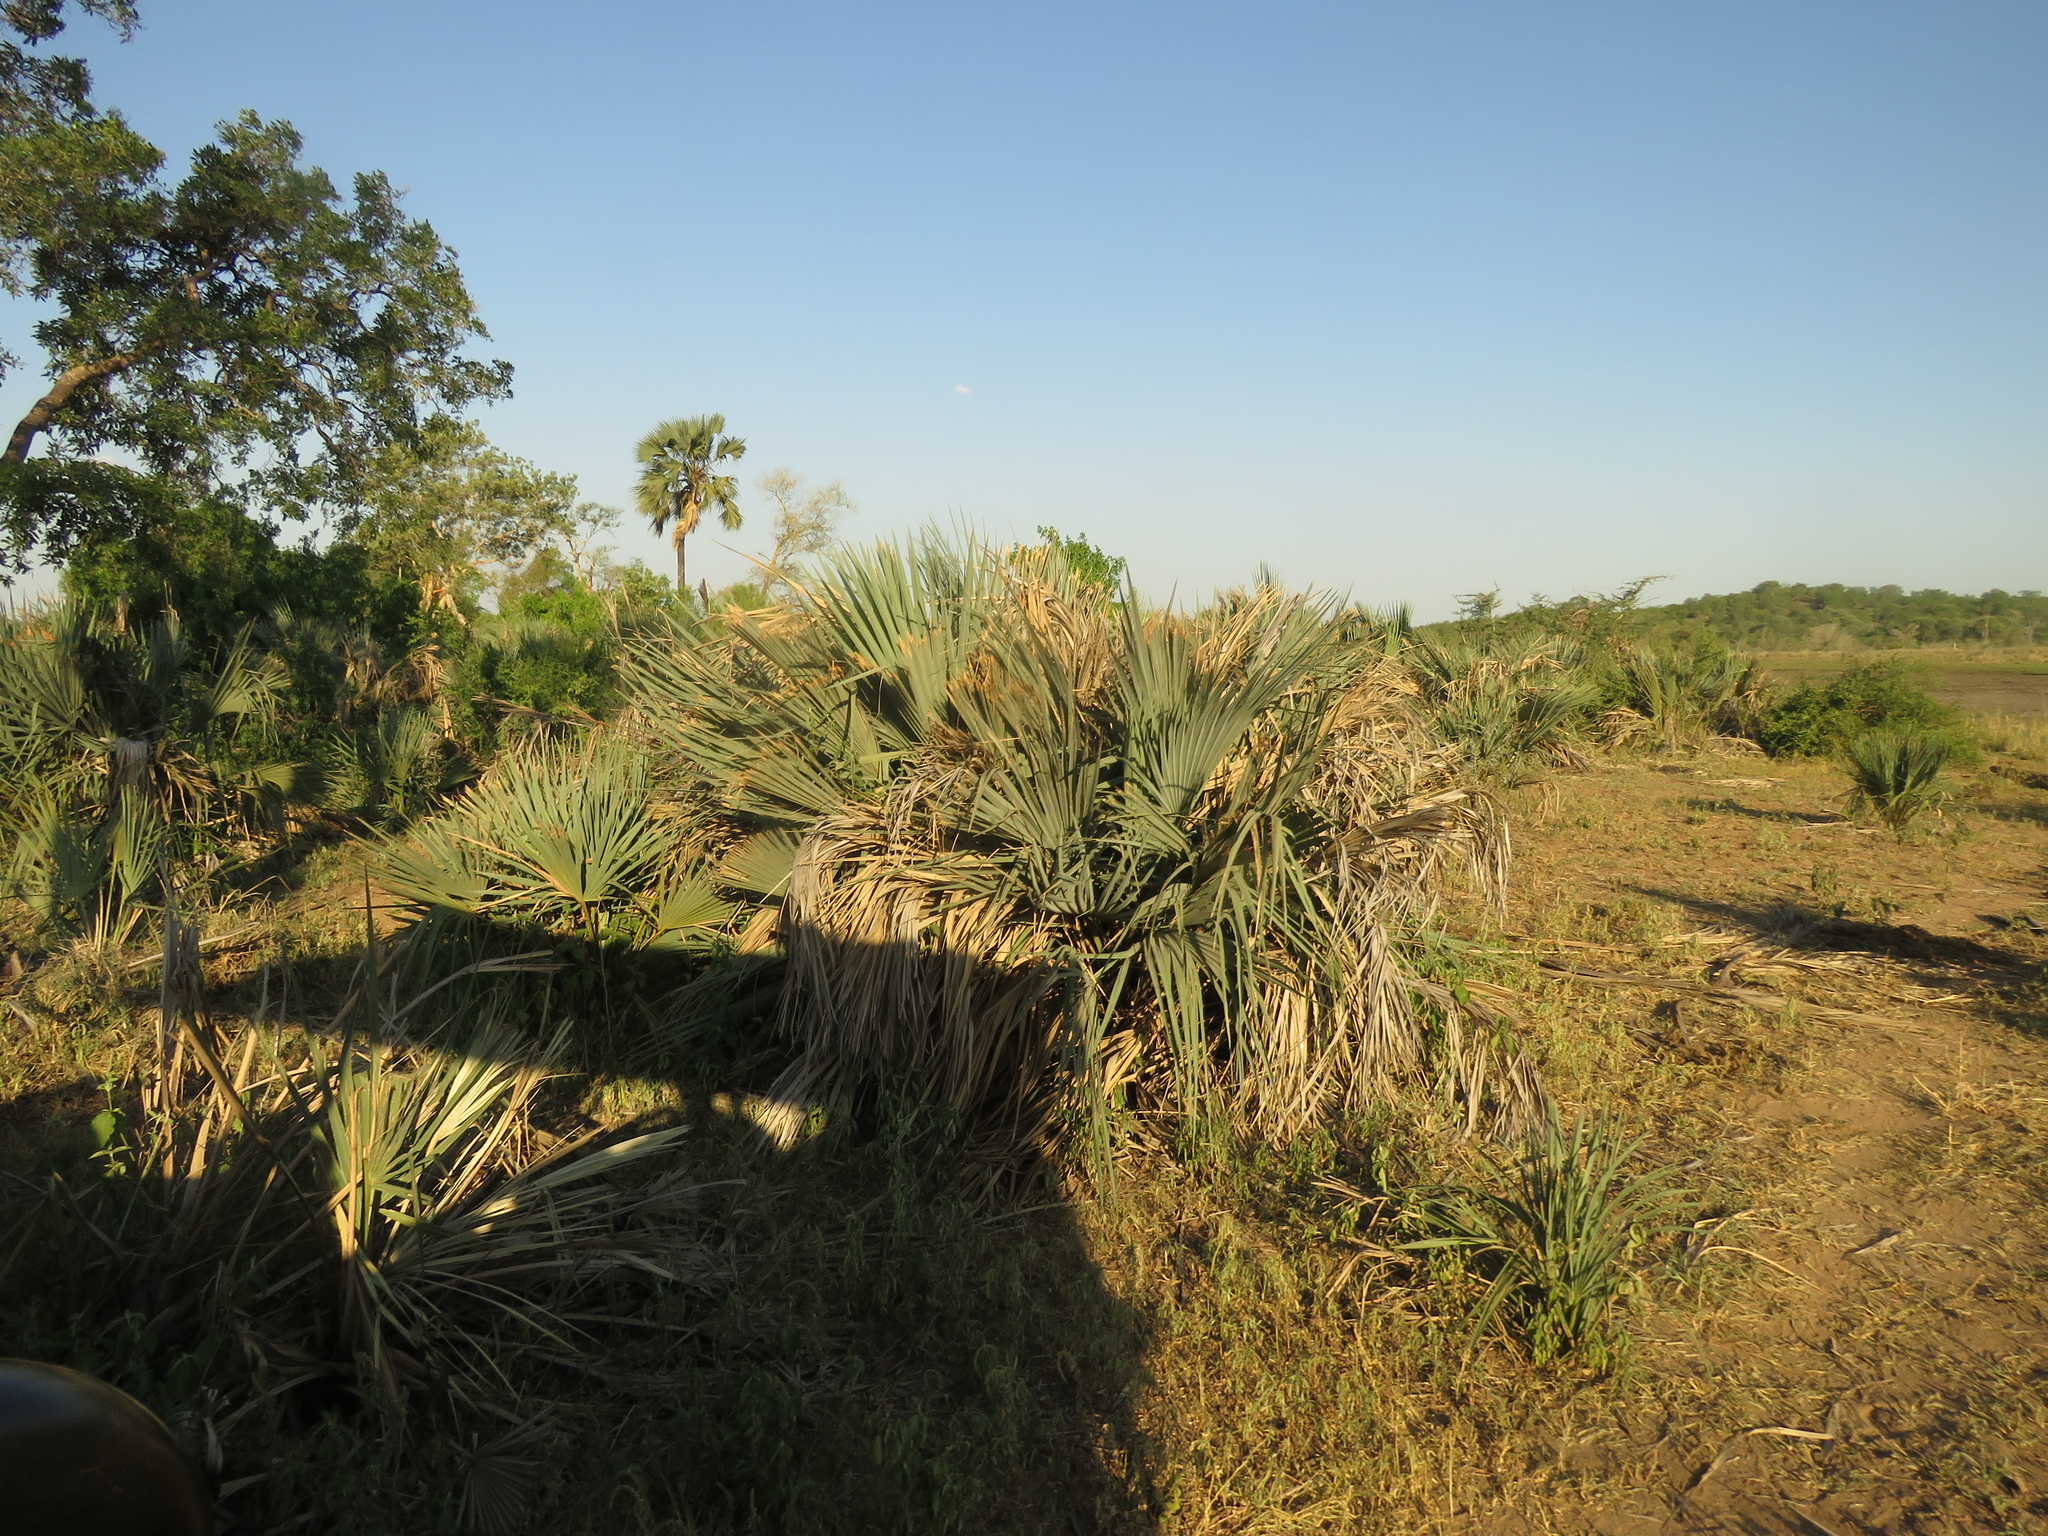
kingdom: Plantae
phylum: Tracheophyta
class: Liliopsida
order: Arecales
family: Arecaceae
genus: Hyphaene
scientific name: Hyphaene petersiana
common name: African ivory nut palm
